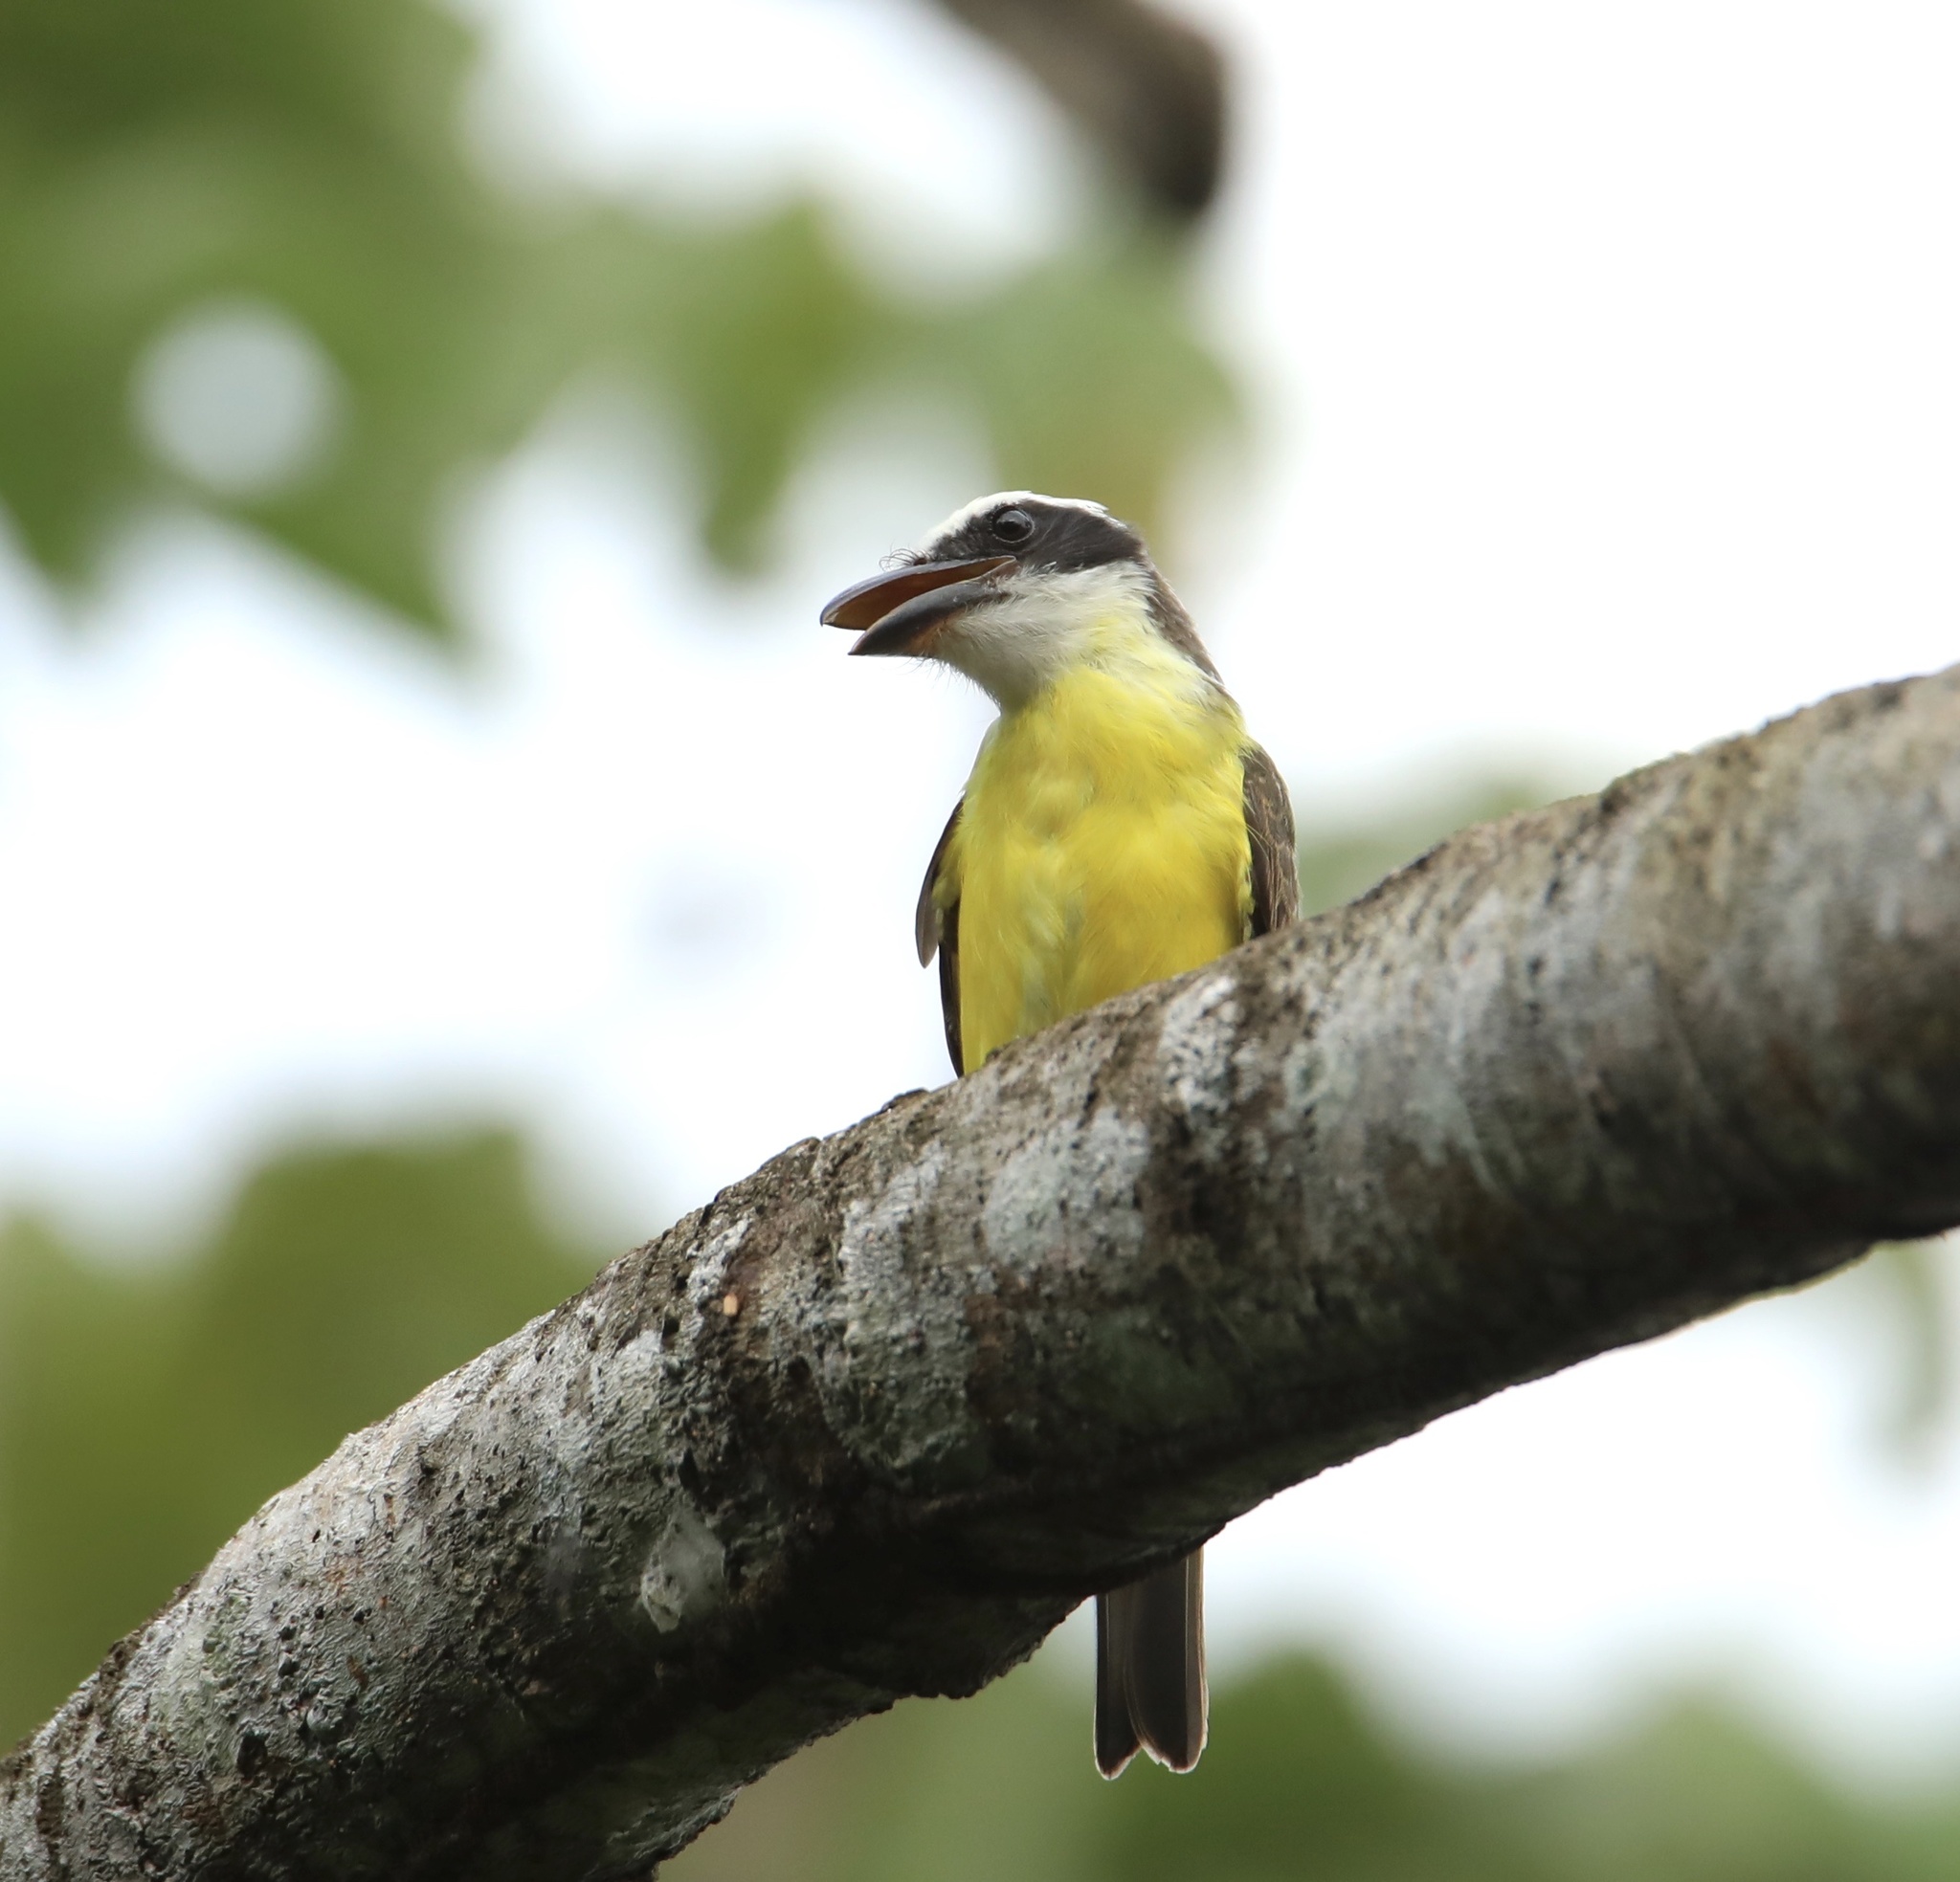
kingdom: Animalia
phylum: Chordata
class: Aves
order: Passeriformes
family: Tyrannidae
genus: Megarynchus
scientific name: Megarynchus pitangua
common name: Boat-billed flycatcher
